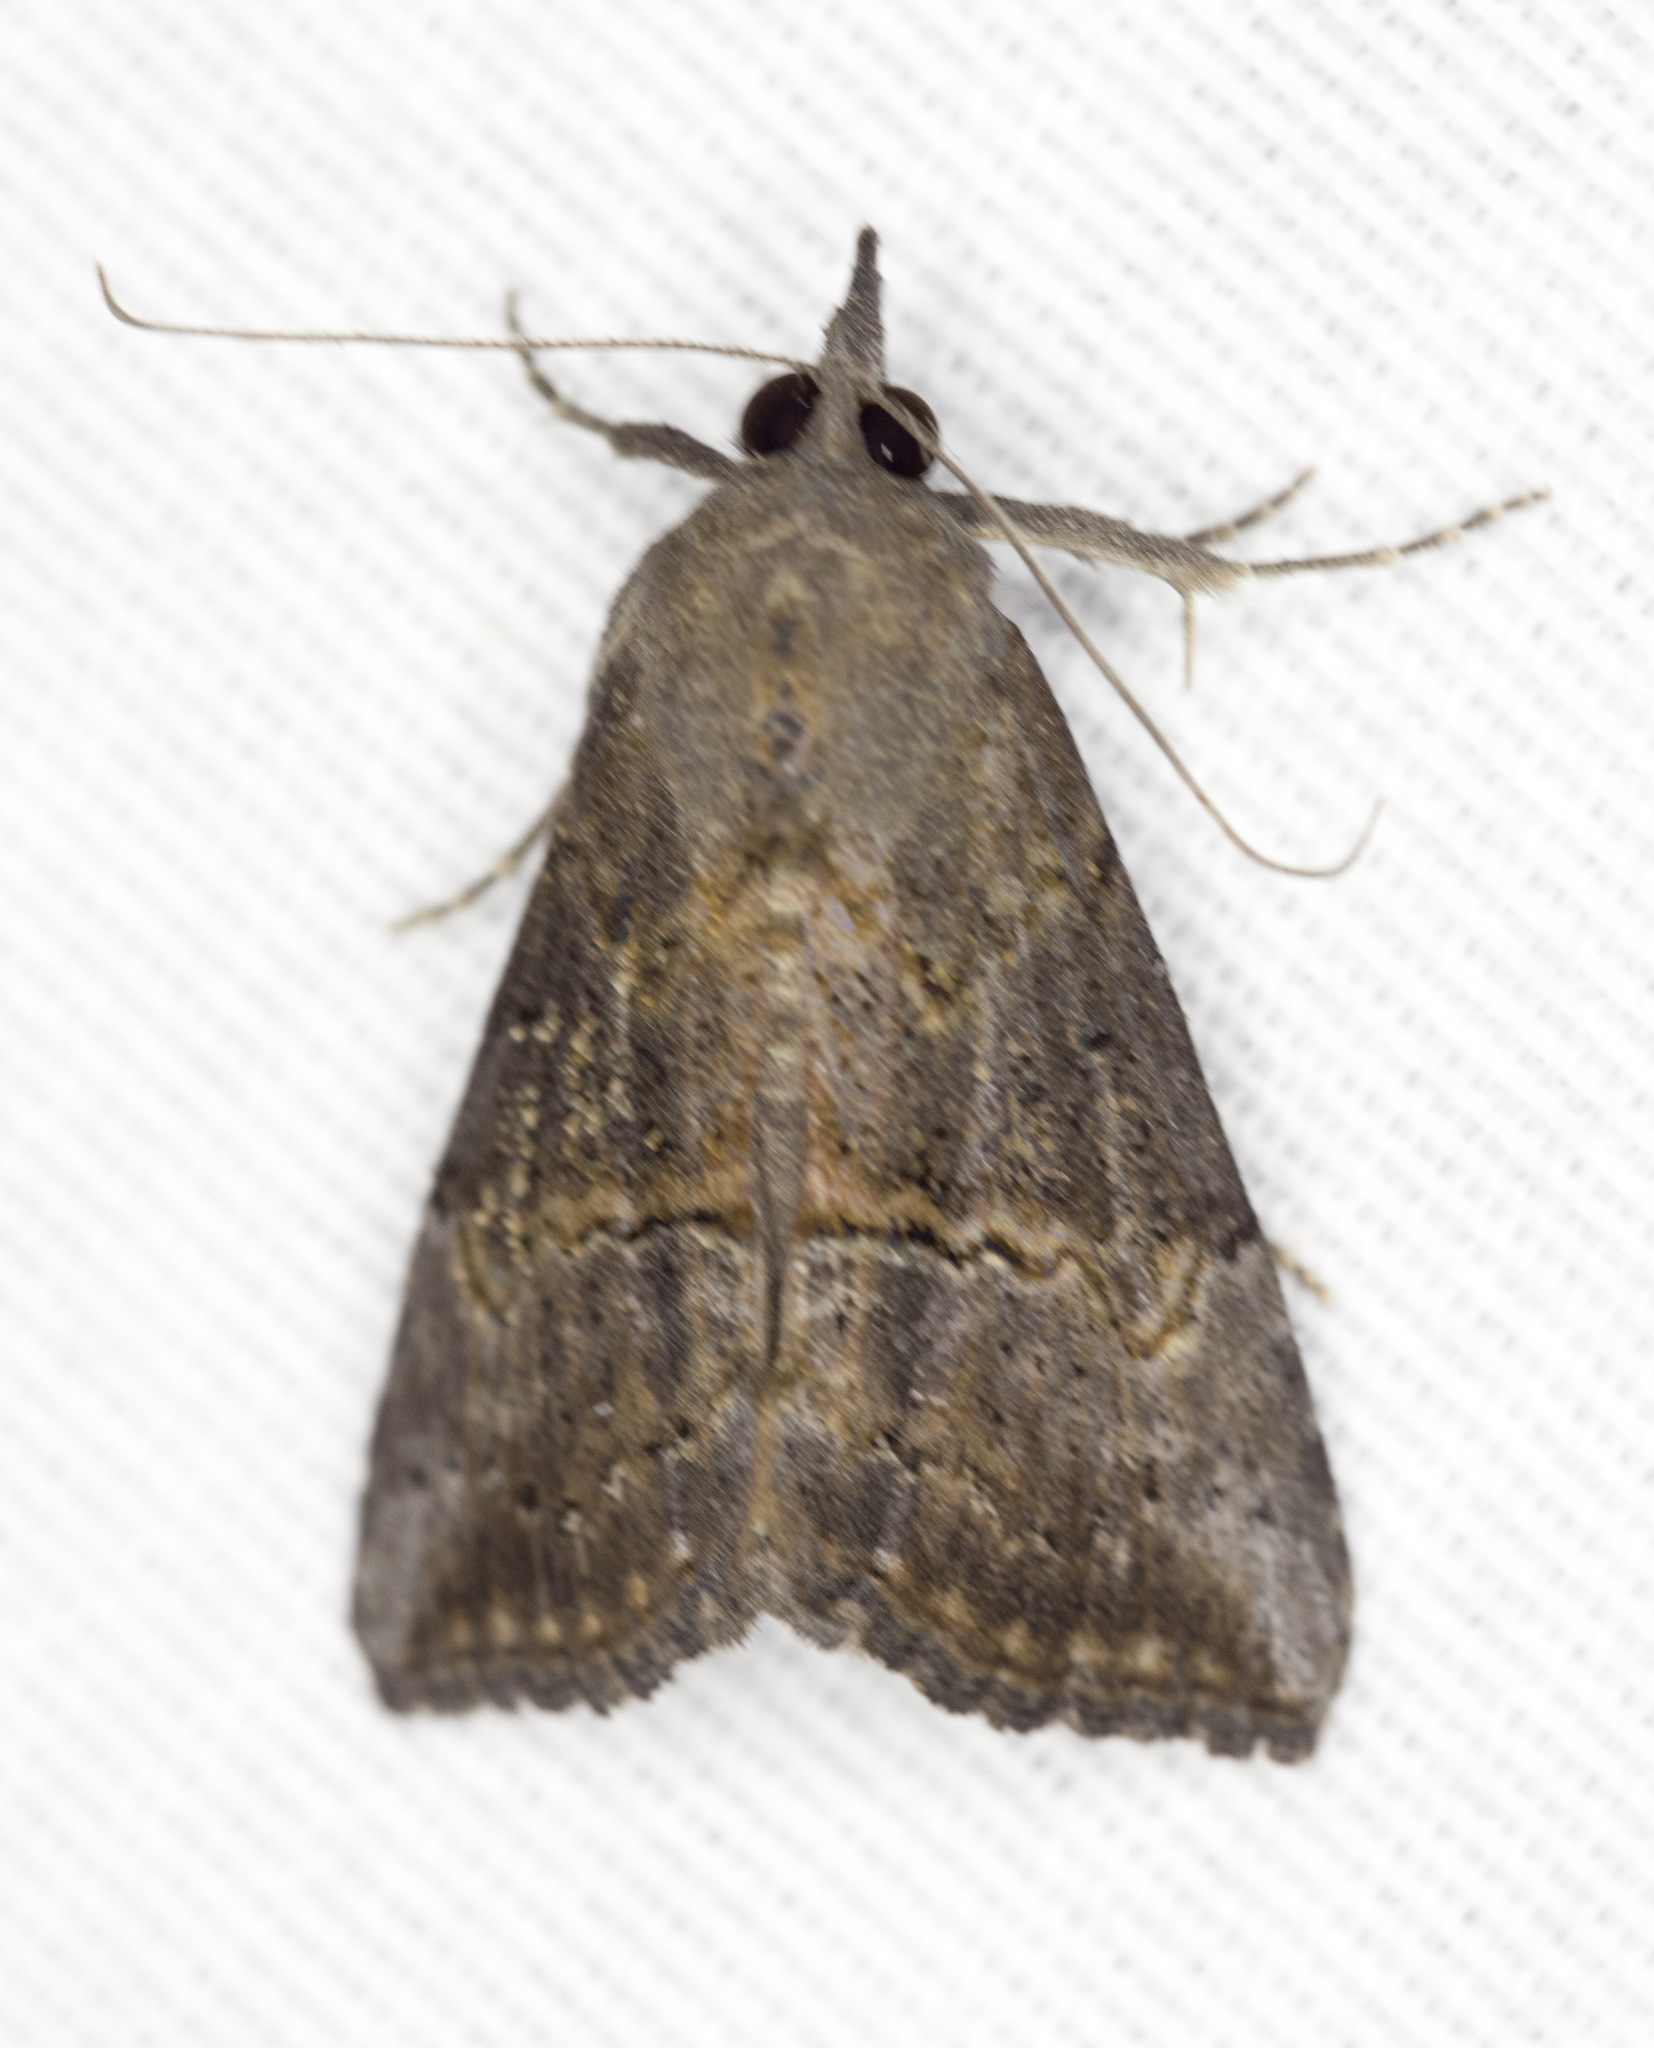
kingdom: Animalia
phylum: Arthropoda
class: Insecta
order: Lepidoptera
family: Erebidae
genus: Hypena
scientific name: Hypena scabra
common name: Green cloverworm
